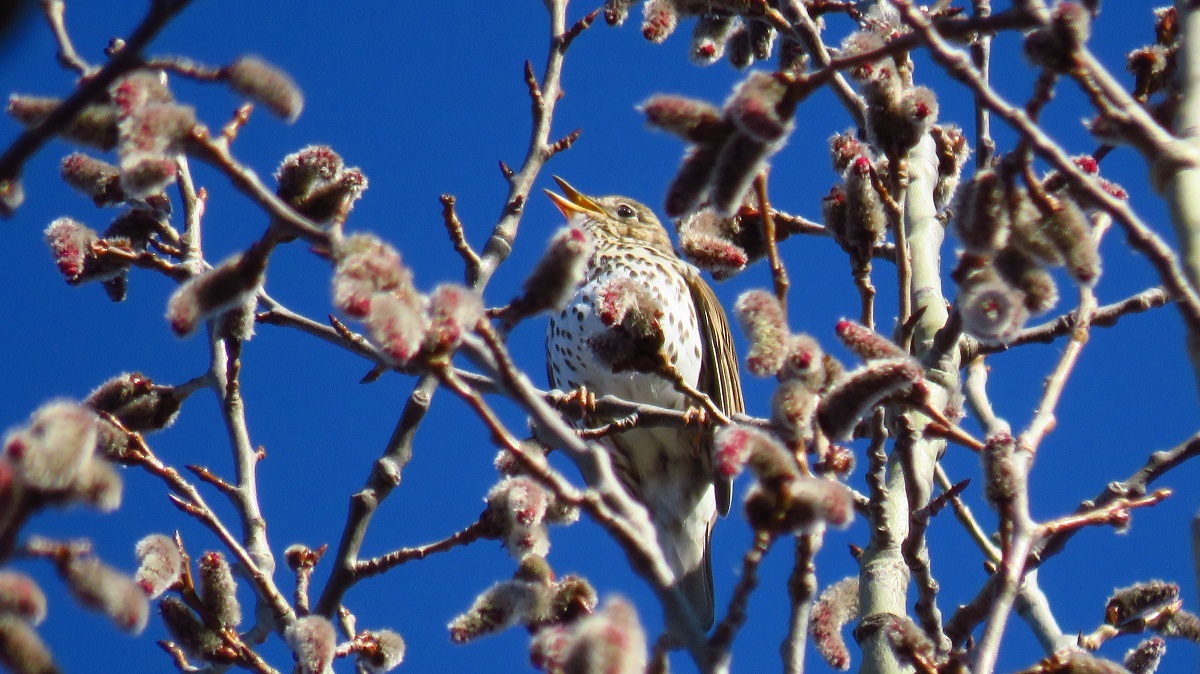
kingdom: Animalia
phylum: Chordata
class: Aves
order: Passeriformes
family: Turdidae
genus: Turdus
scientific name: Turdus philomelos
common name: Song thrush
